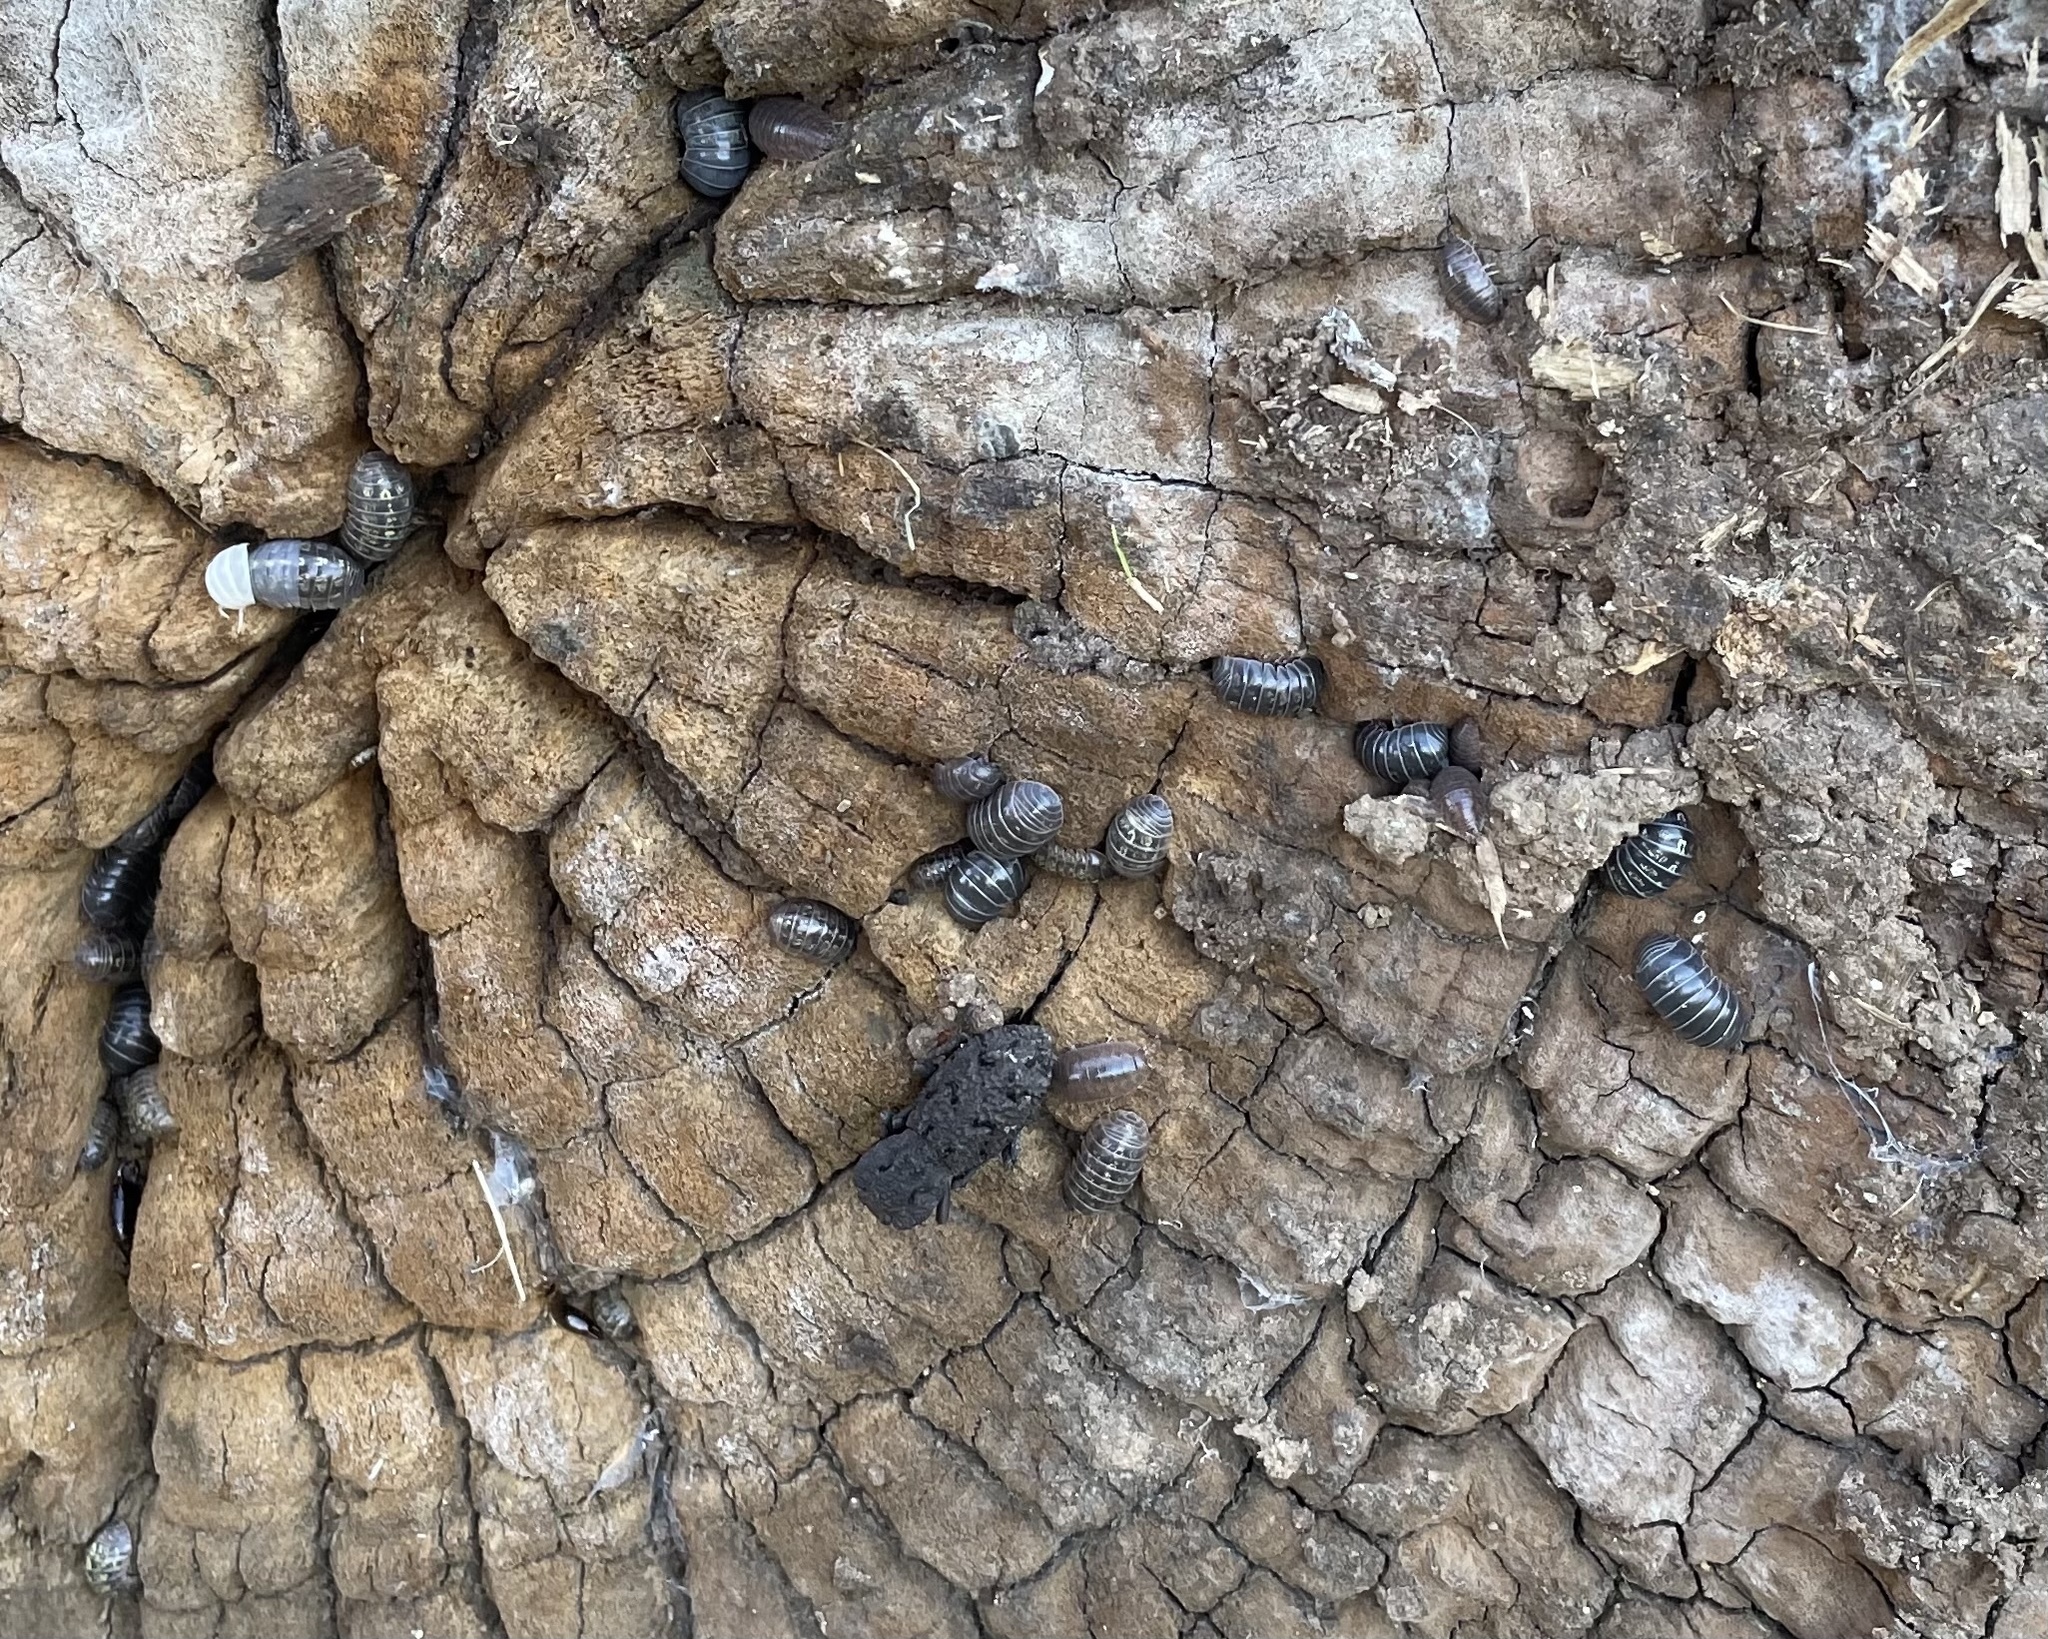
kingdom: Animalia
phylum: Arthropoda
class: Malacostraca
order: Isopoda
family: Armadillidiidae
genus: Armadillidium
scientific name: Armadillidium vulgare
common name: Common pill woodlouse
